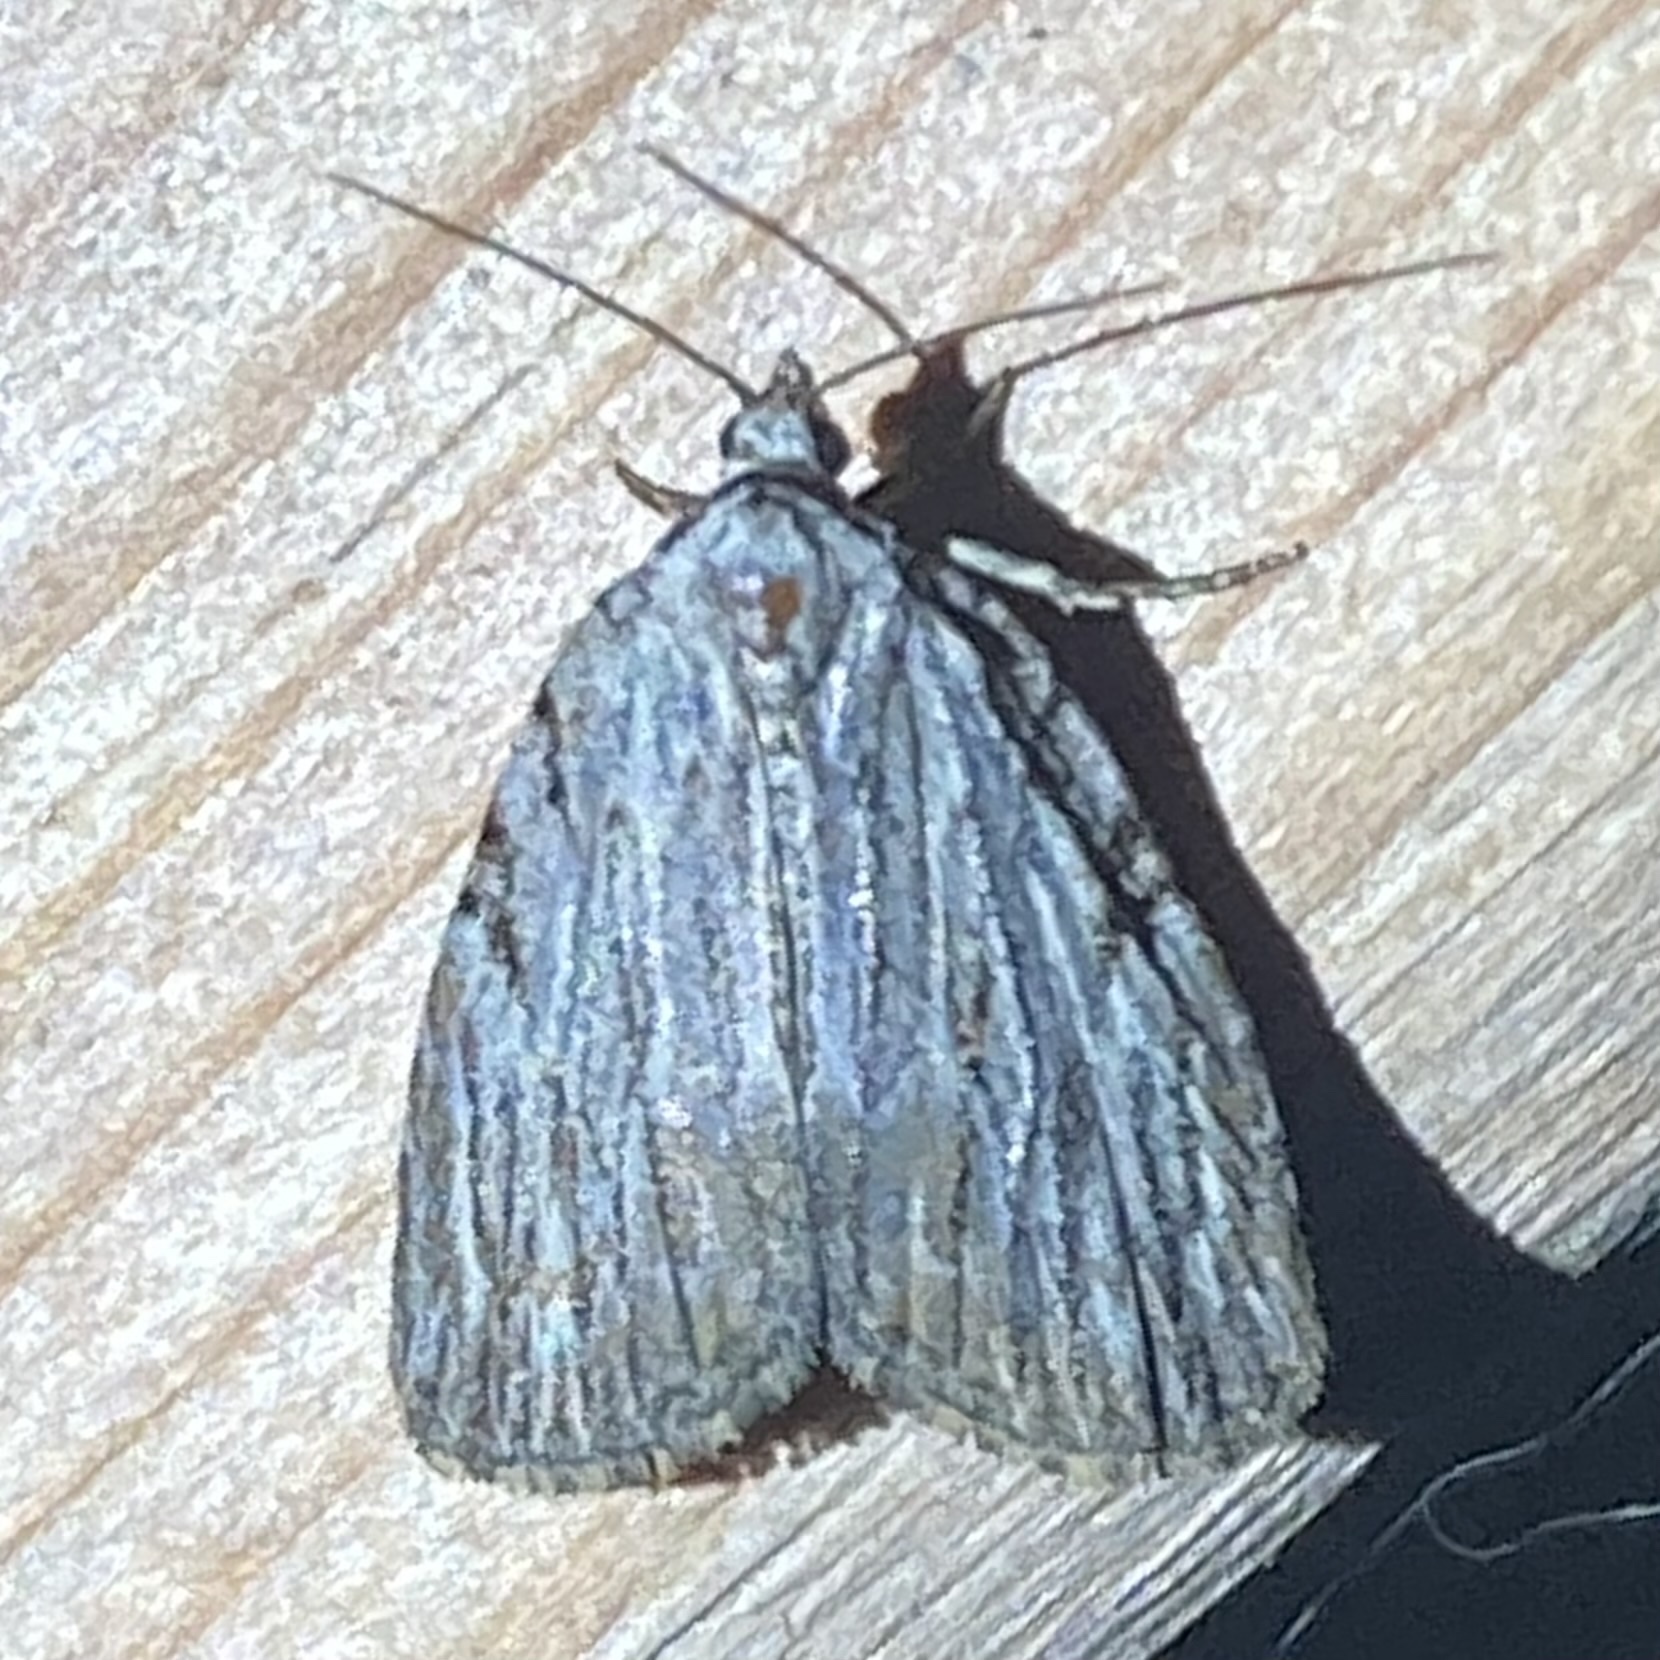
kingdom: Animalia
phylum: Arthropoda
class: Insecta
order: Lepidoptera
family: Noctuidae
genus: Balsa
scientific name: Balsa tristrigella
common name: Three-lined balsa moth
